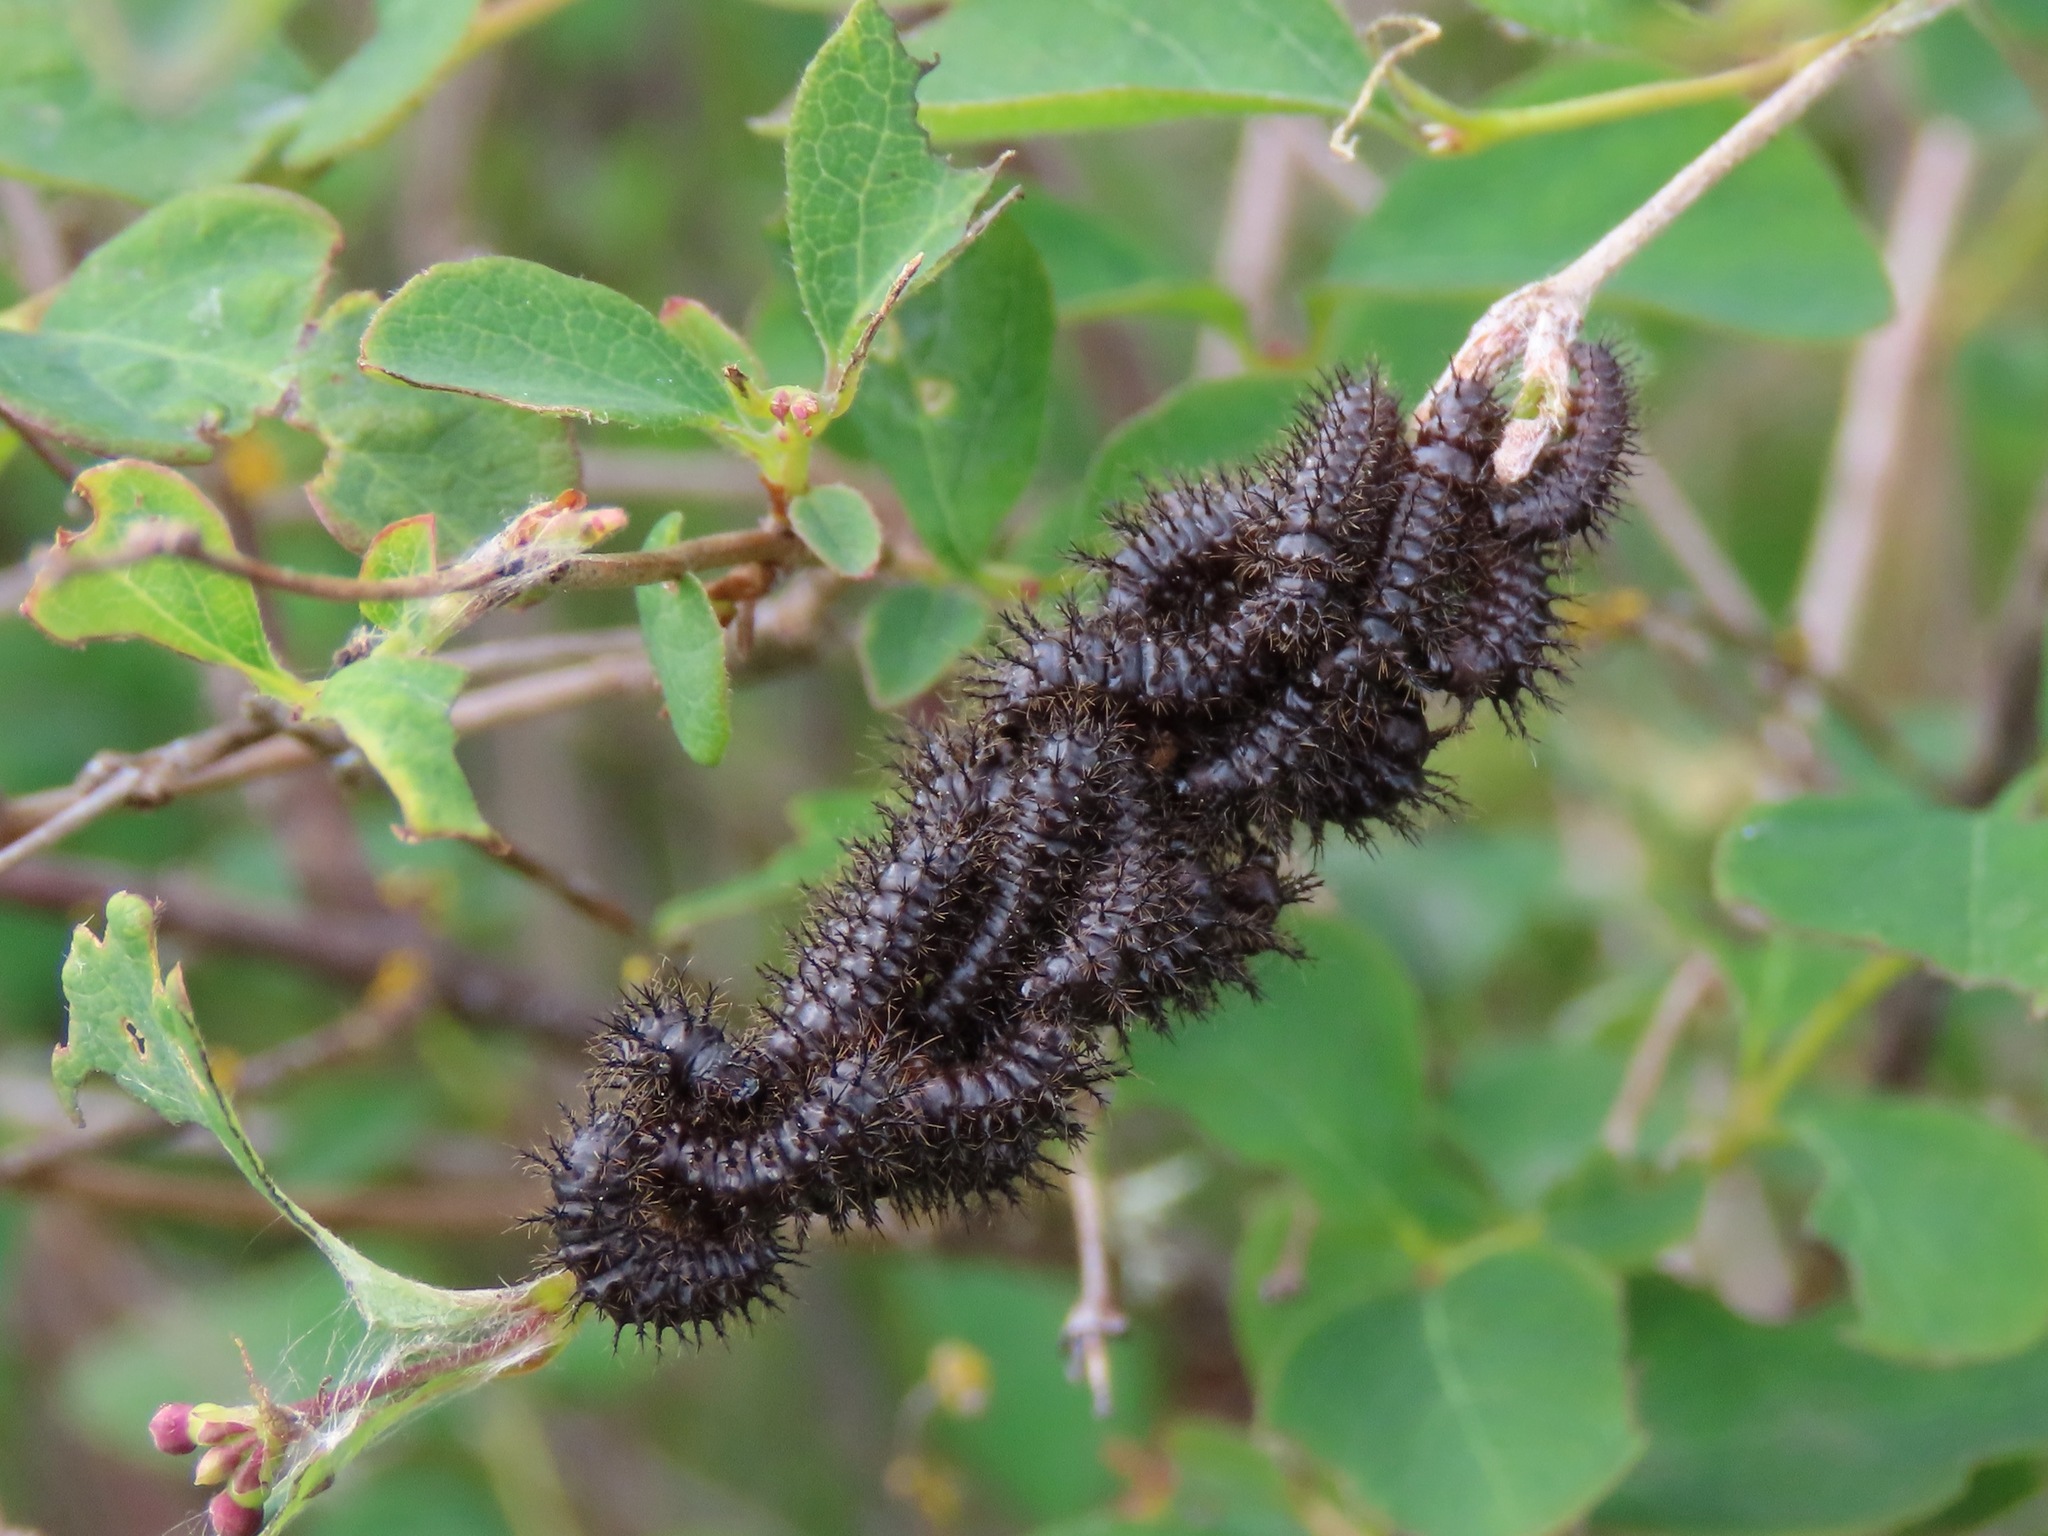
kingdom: Animalia
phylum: Arthropoda
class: Insecta
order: Lepidoptera
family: Saturniidae
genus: Hemileuca
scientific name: Hemileuca eglanterina
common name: Western sheepmoth
